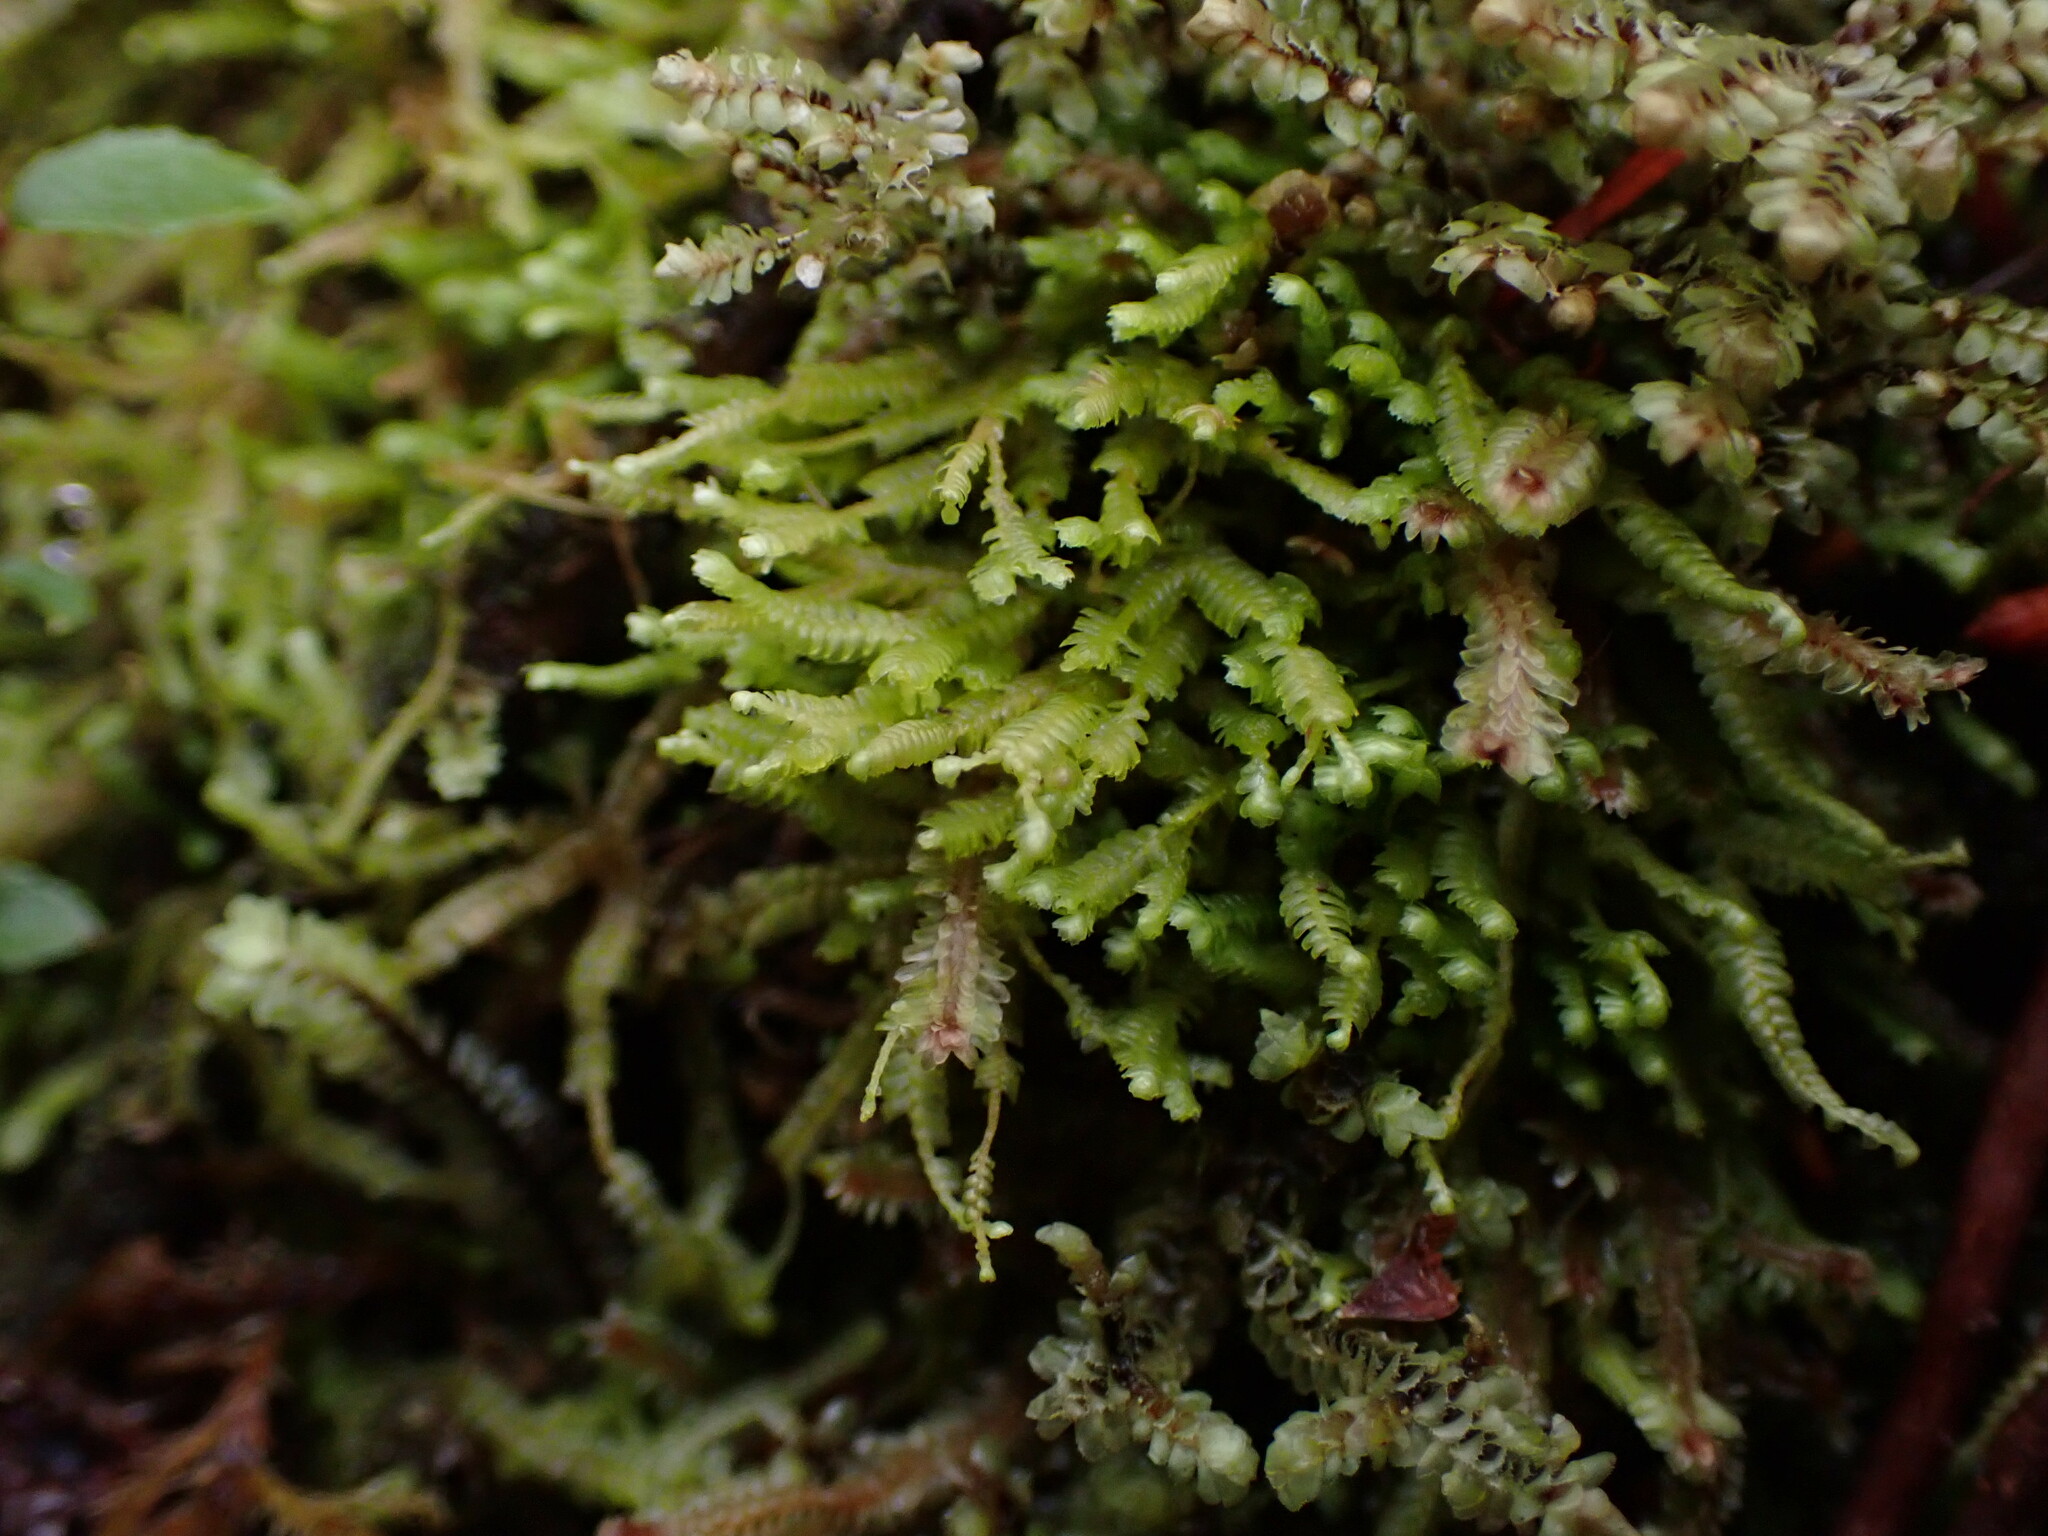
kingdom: Plantae
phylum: Marchantiophyta
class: Jungermanniopsida
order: Jungermanniales
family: Lepidoziaceae
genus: Bazzania
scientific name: Bazzania denudata
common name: Naked whipwort
